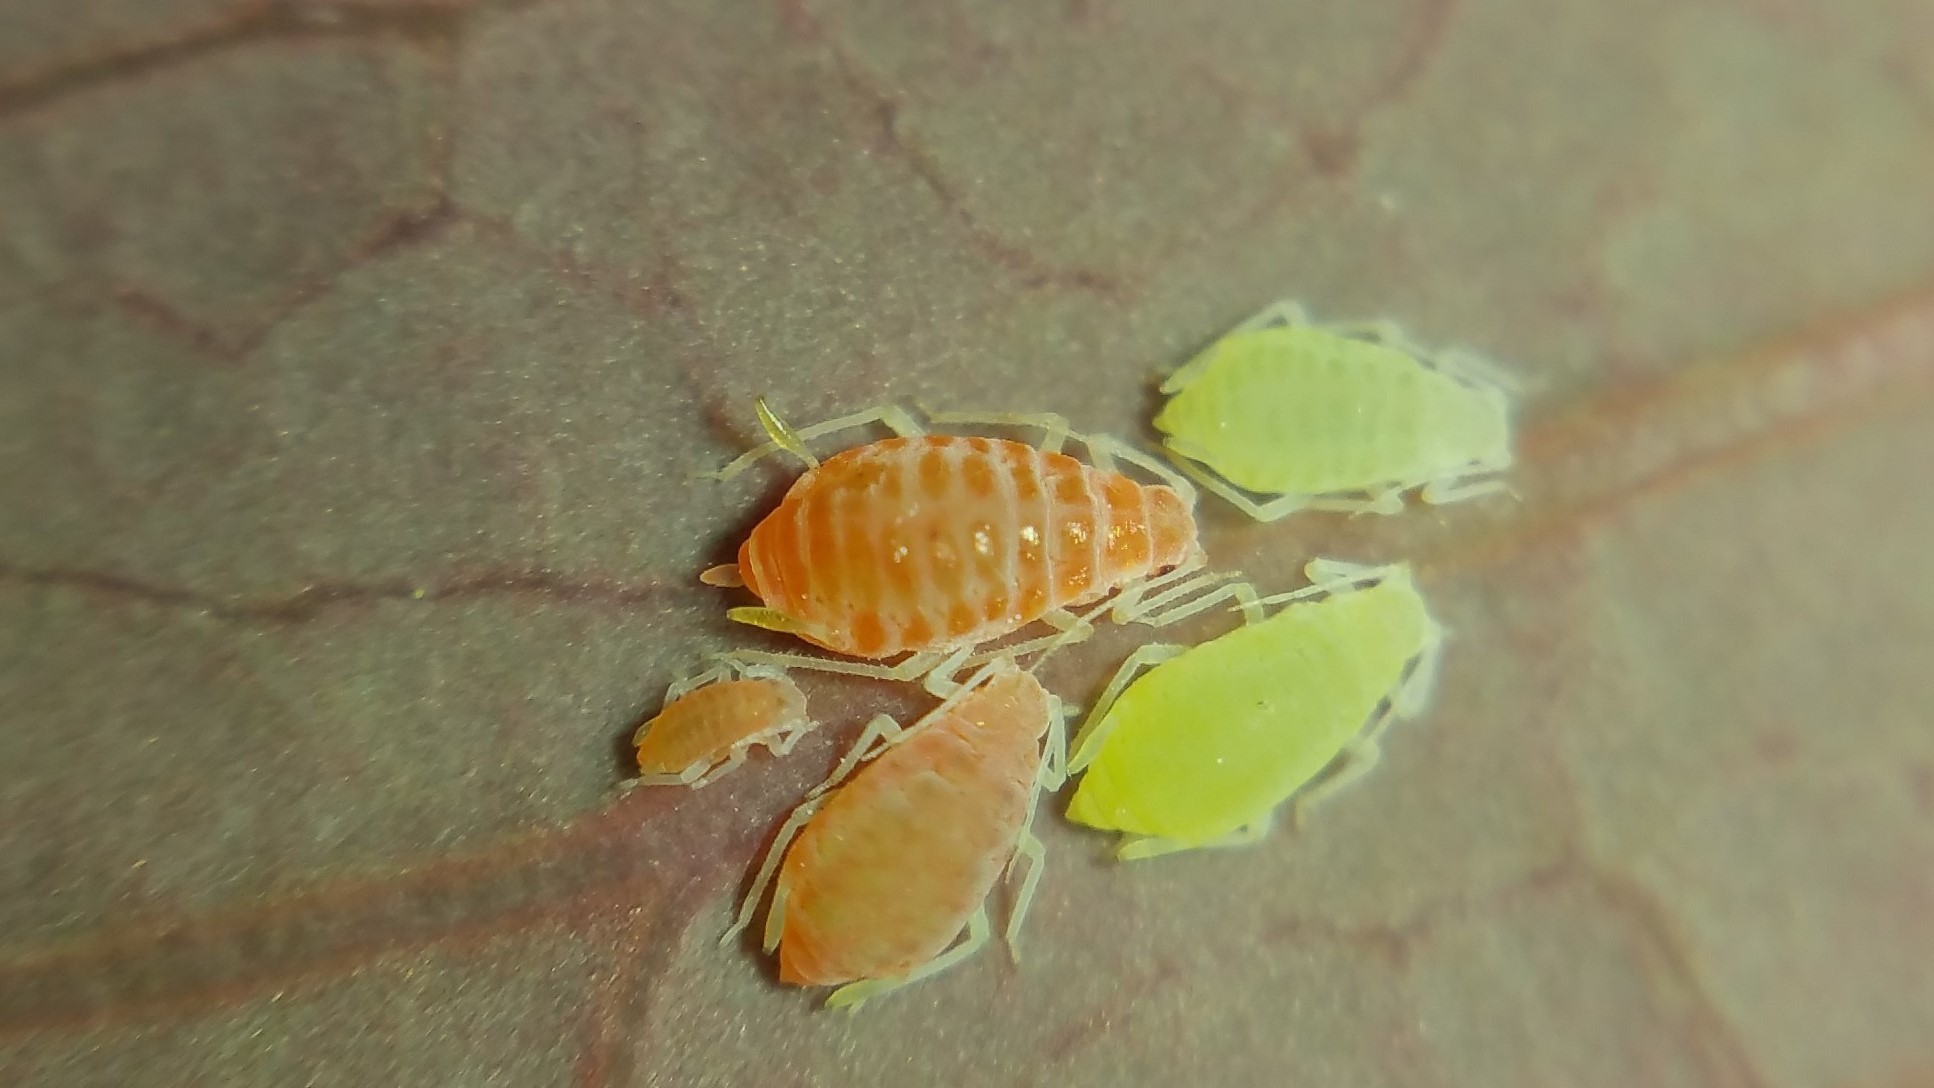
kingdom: Animalia
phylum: Arthropoda
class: Insecta
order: Hemiptera
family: Aphididae
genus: Liosomaphis
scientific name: Liosomaphis berberidis
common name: Barberry aphid
